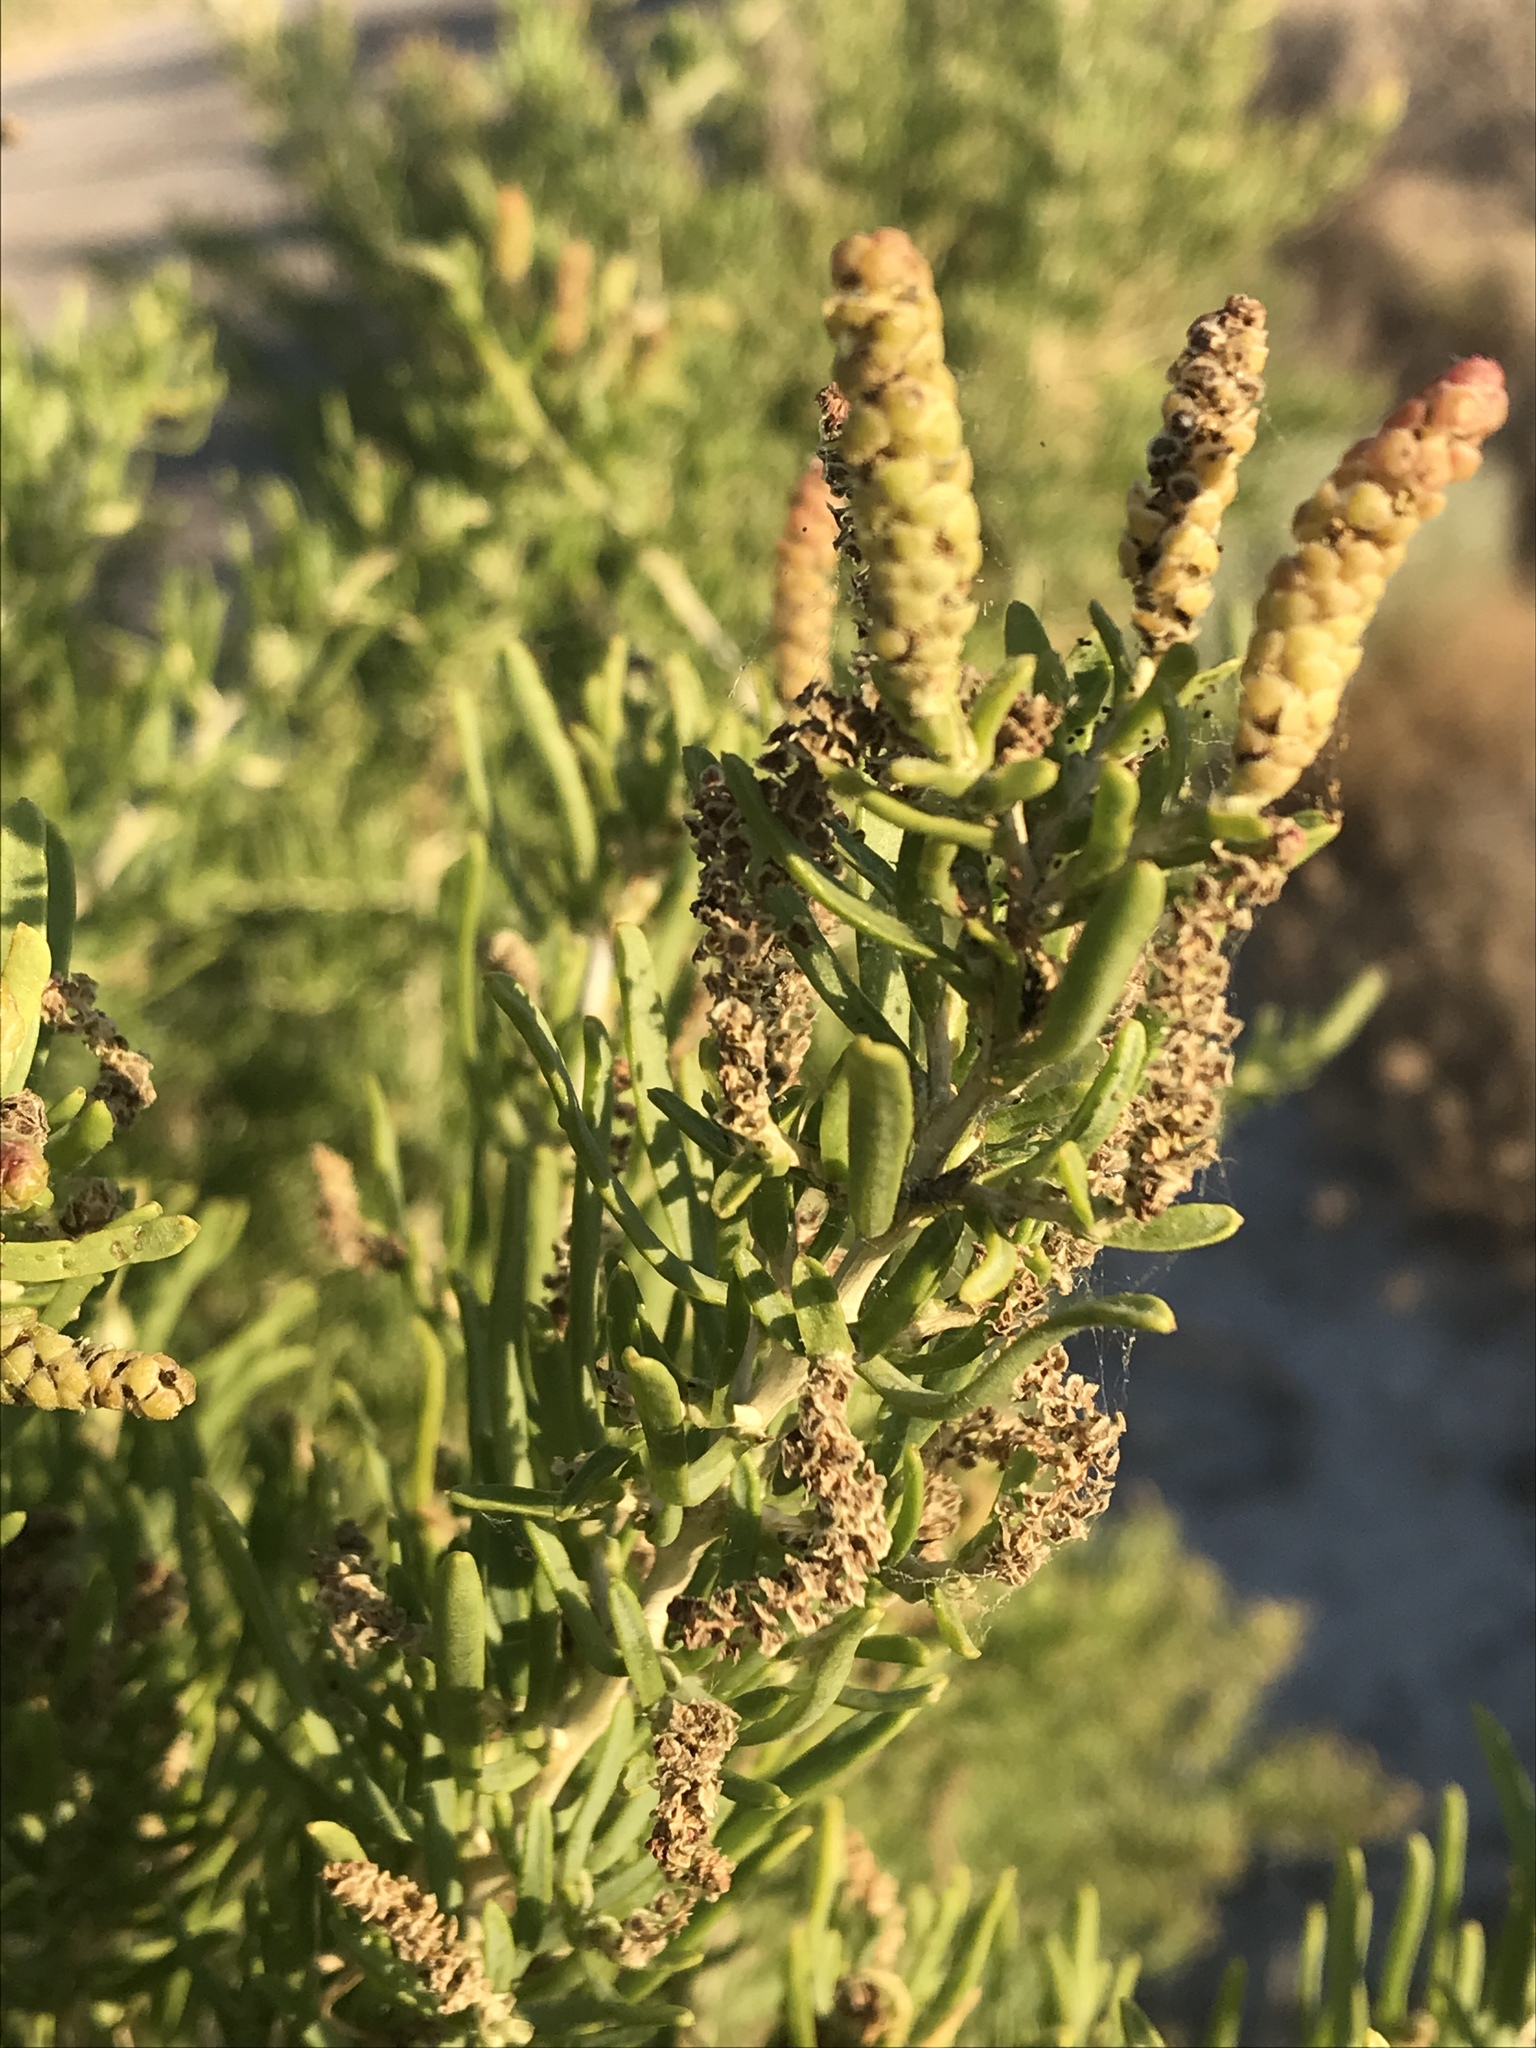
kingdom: Plantae
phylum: Tracheophyta
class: Magnoliopsida
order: Caryophyllales
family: Sarcobataceae
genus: Sarcobatus
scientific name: Sarcobatus vermiculatus
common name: Greasewood
